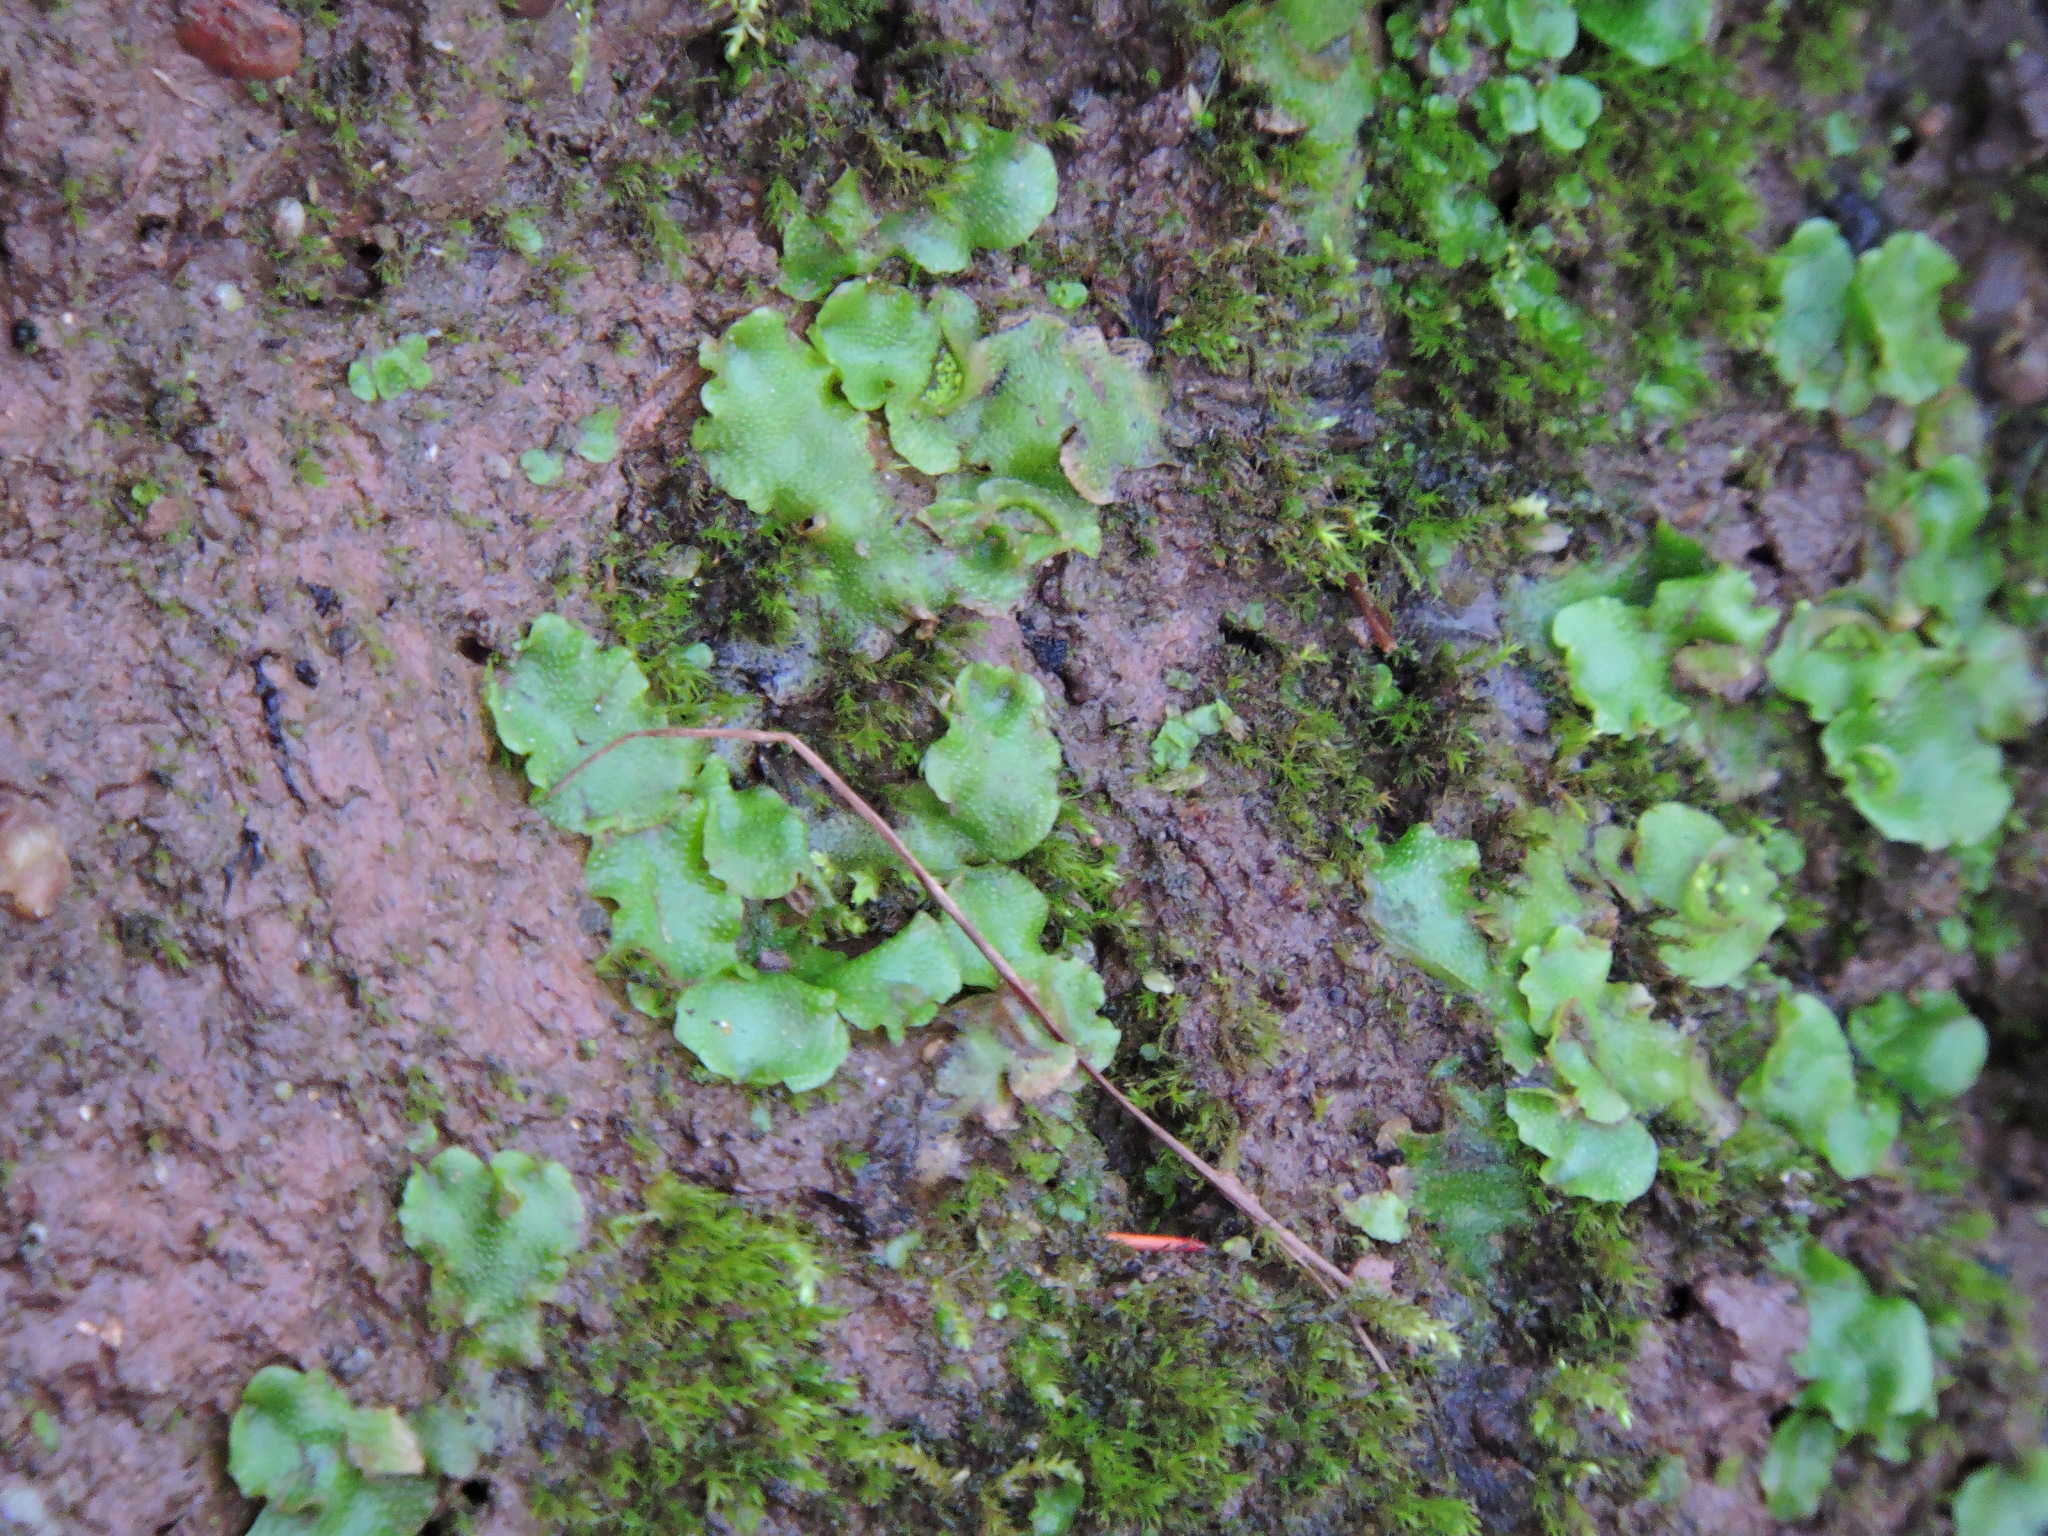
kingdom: Plantae
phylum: Marchantiophyta
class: Marchantiopsida
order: Lunulariales
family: Lunulariaceae
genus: Lunularia
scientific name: Lunularia cruciata
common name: Crescent-cup liverwort
